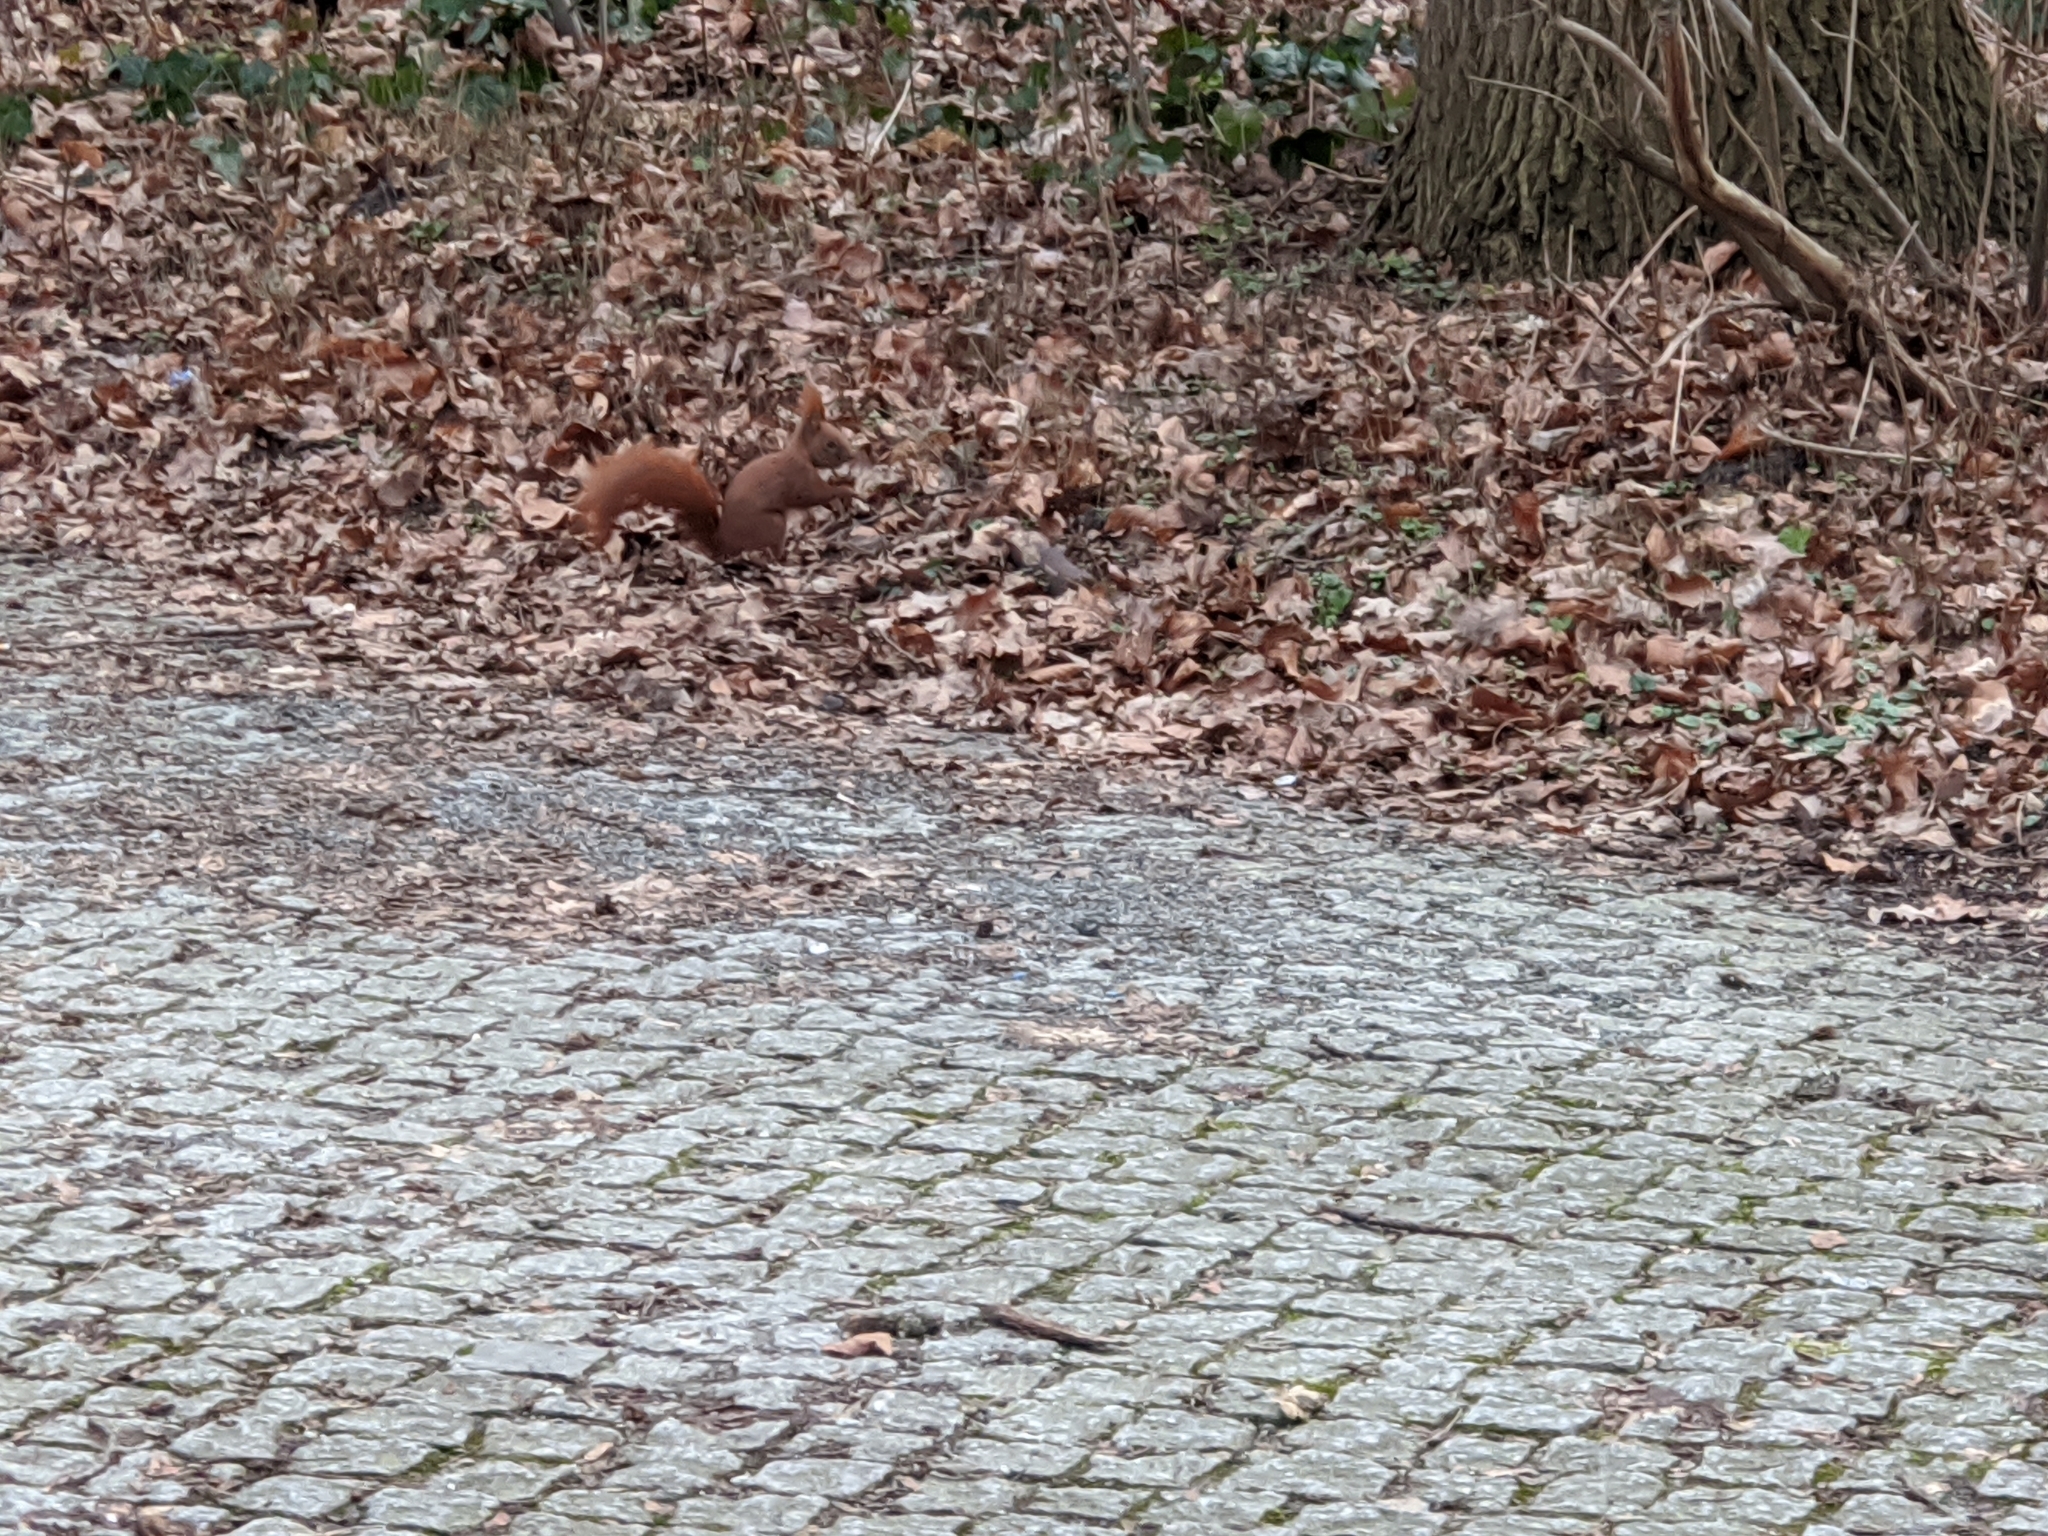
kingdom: Animalia
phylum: Chordata
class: Mammalia
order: Rodentia
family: Sciuridae
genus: Sciurus
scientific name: Sciurus vulgaris
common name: Eurasian red squirrel
